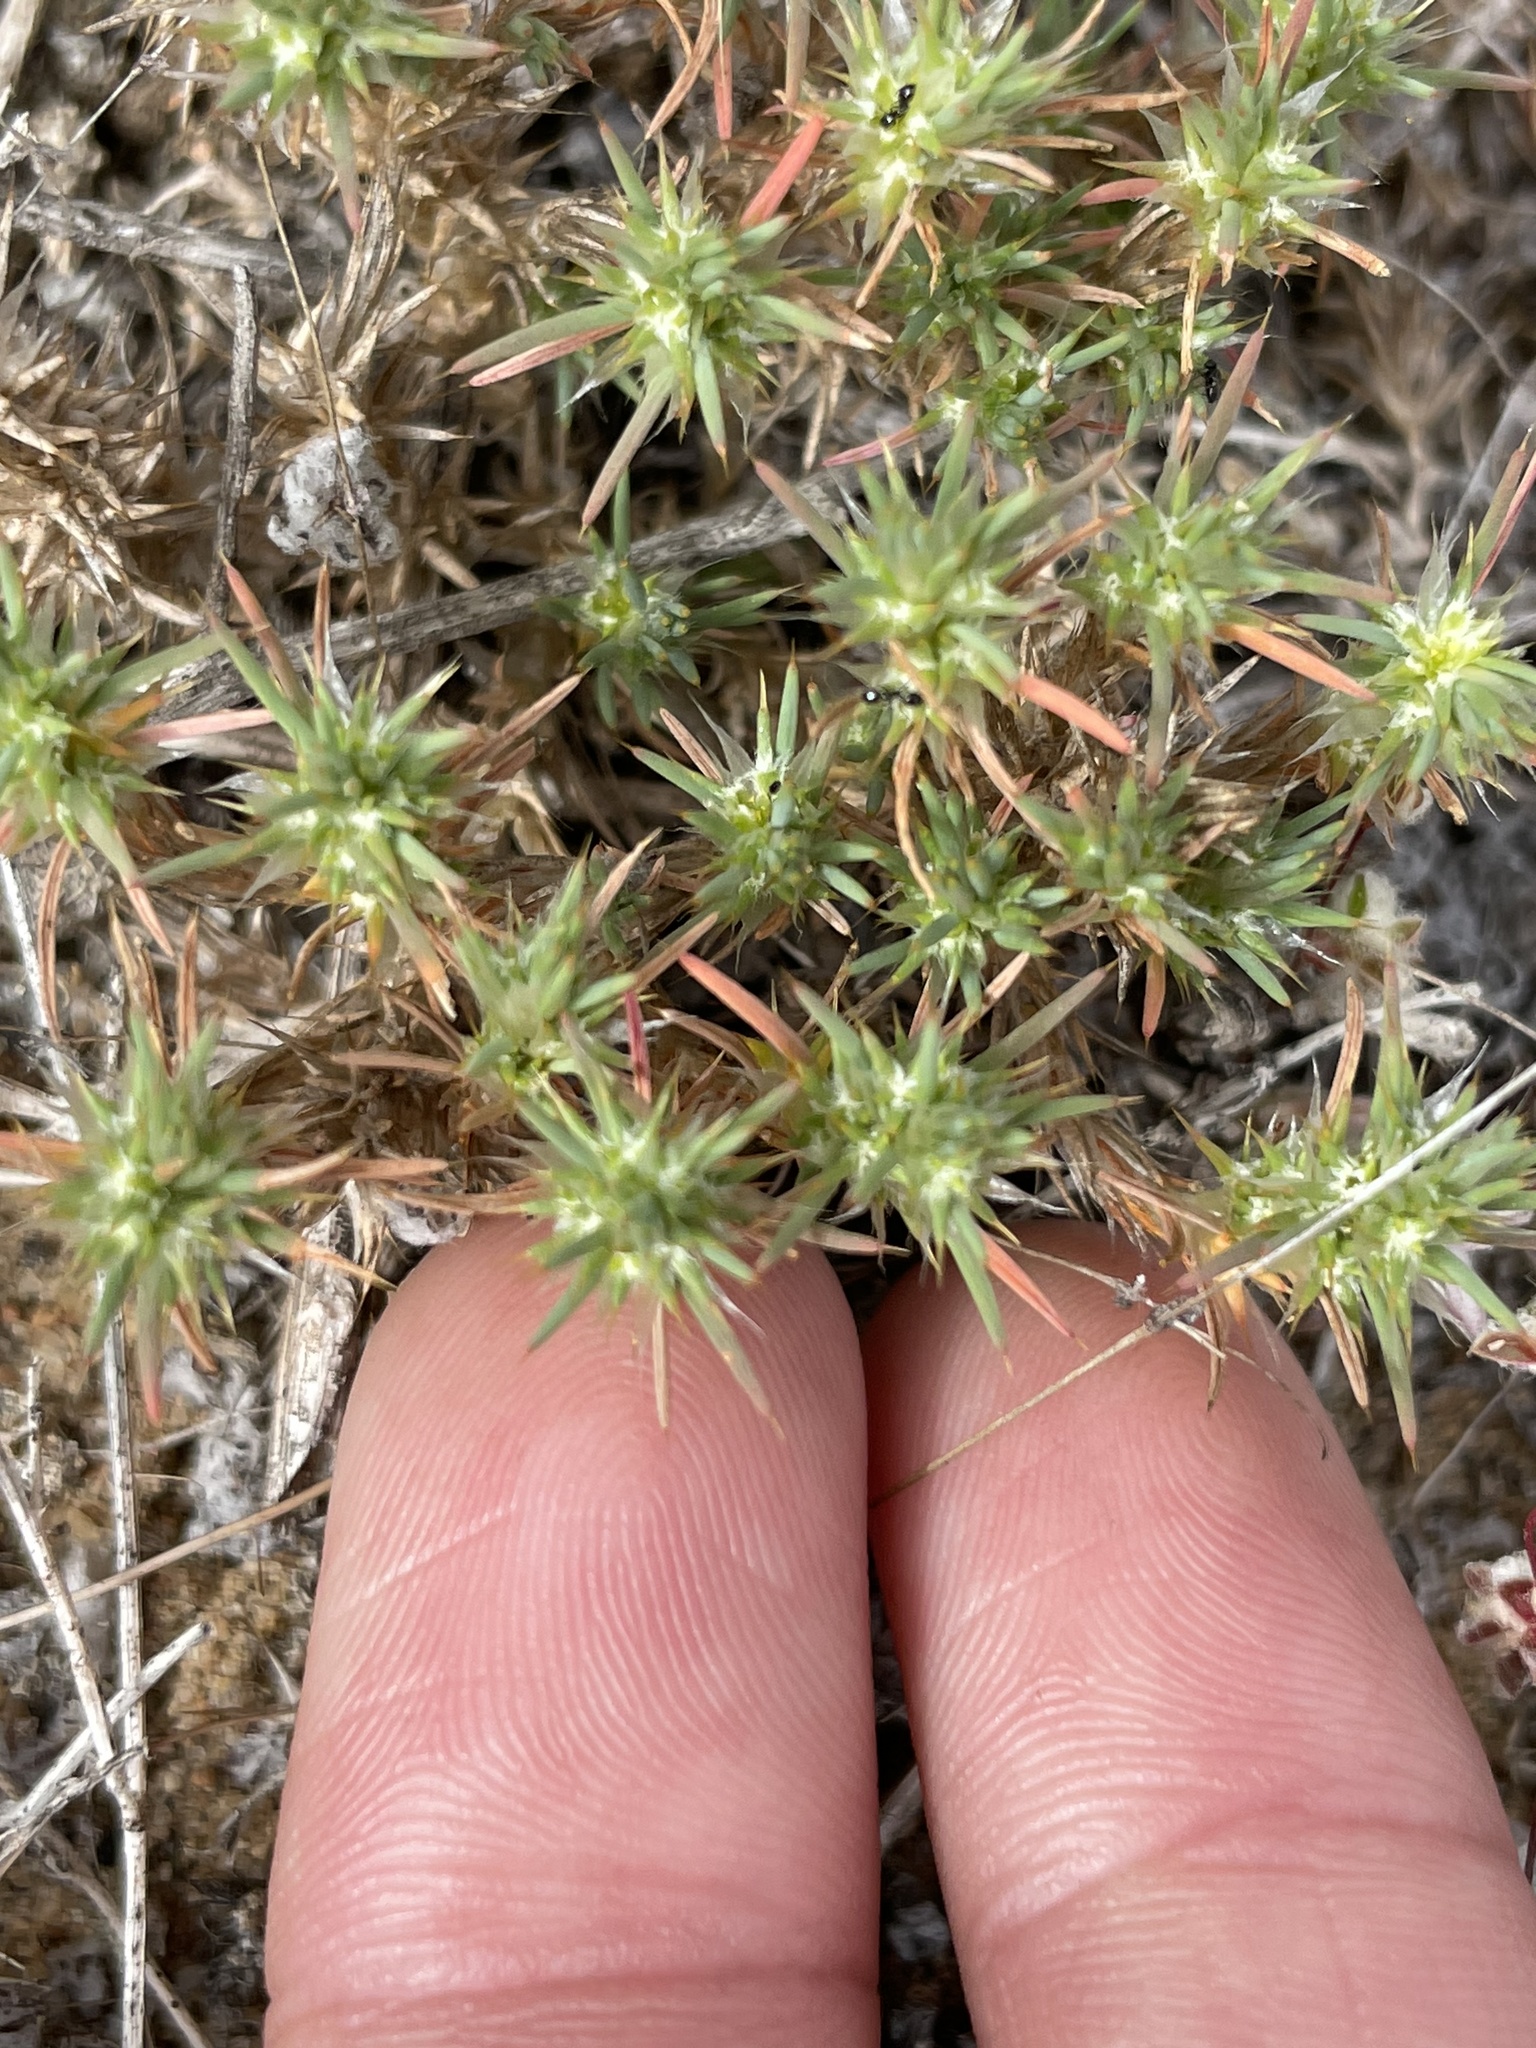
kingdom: Plantae
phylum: Tracheophyta
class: Magnoliopsida
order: Caryophyllales
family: Caryophyllaceae
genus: Cardionema
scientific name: Cardionema ramosissima
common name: Sandcarpet
